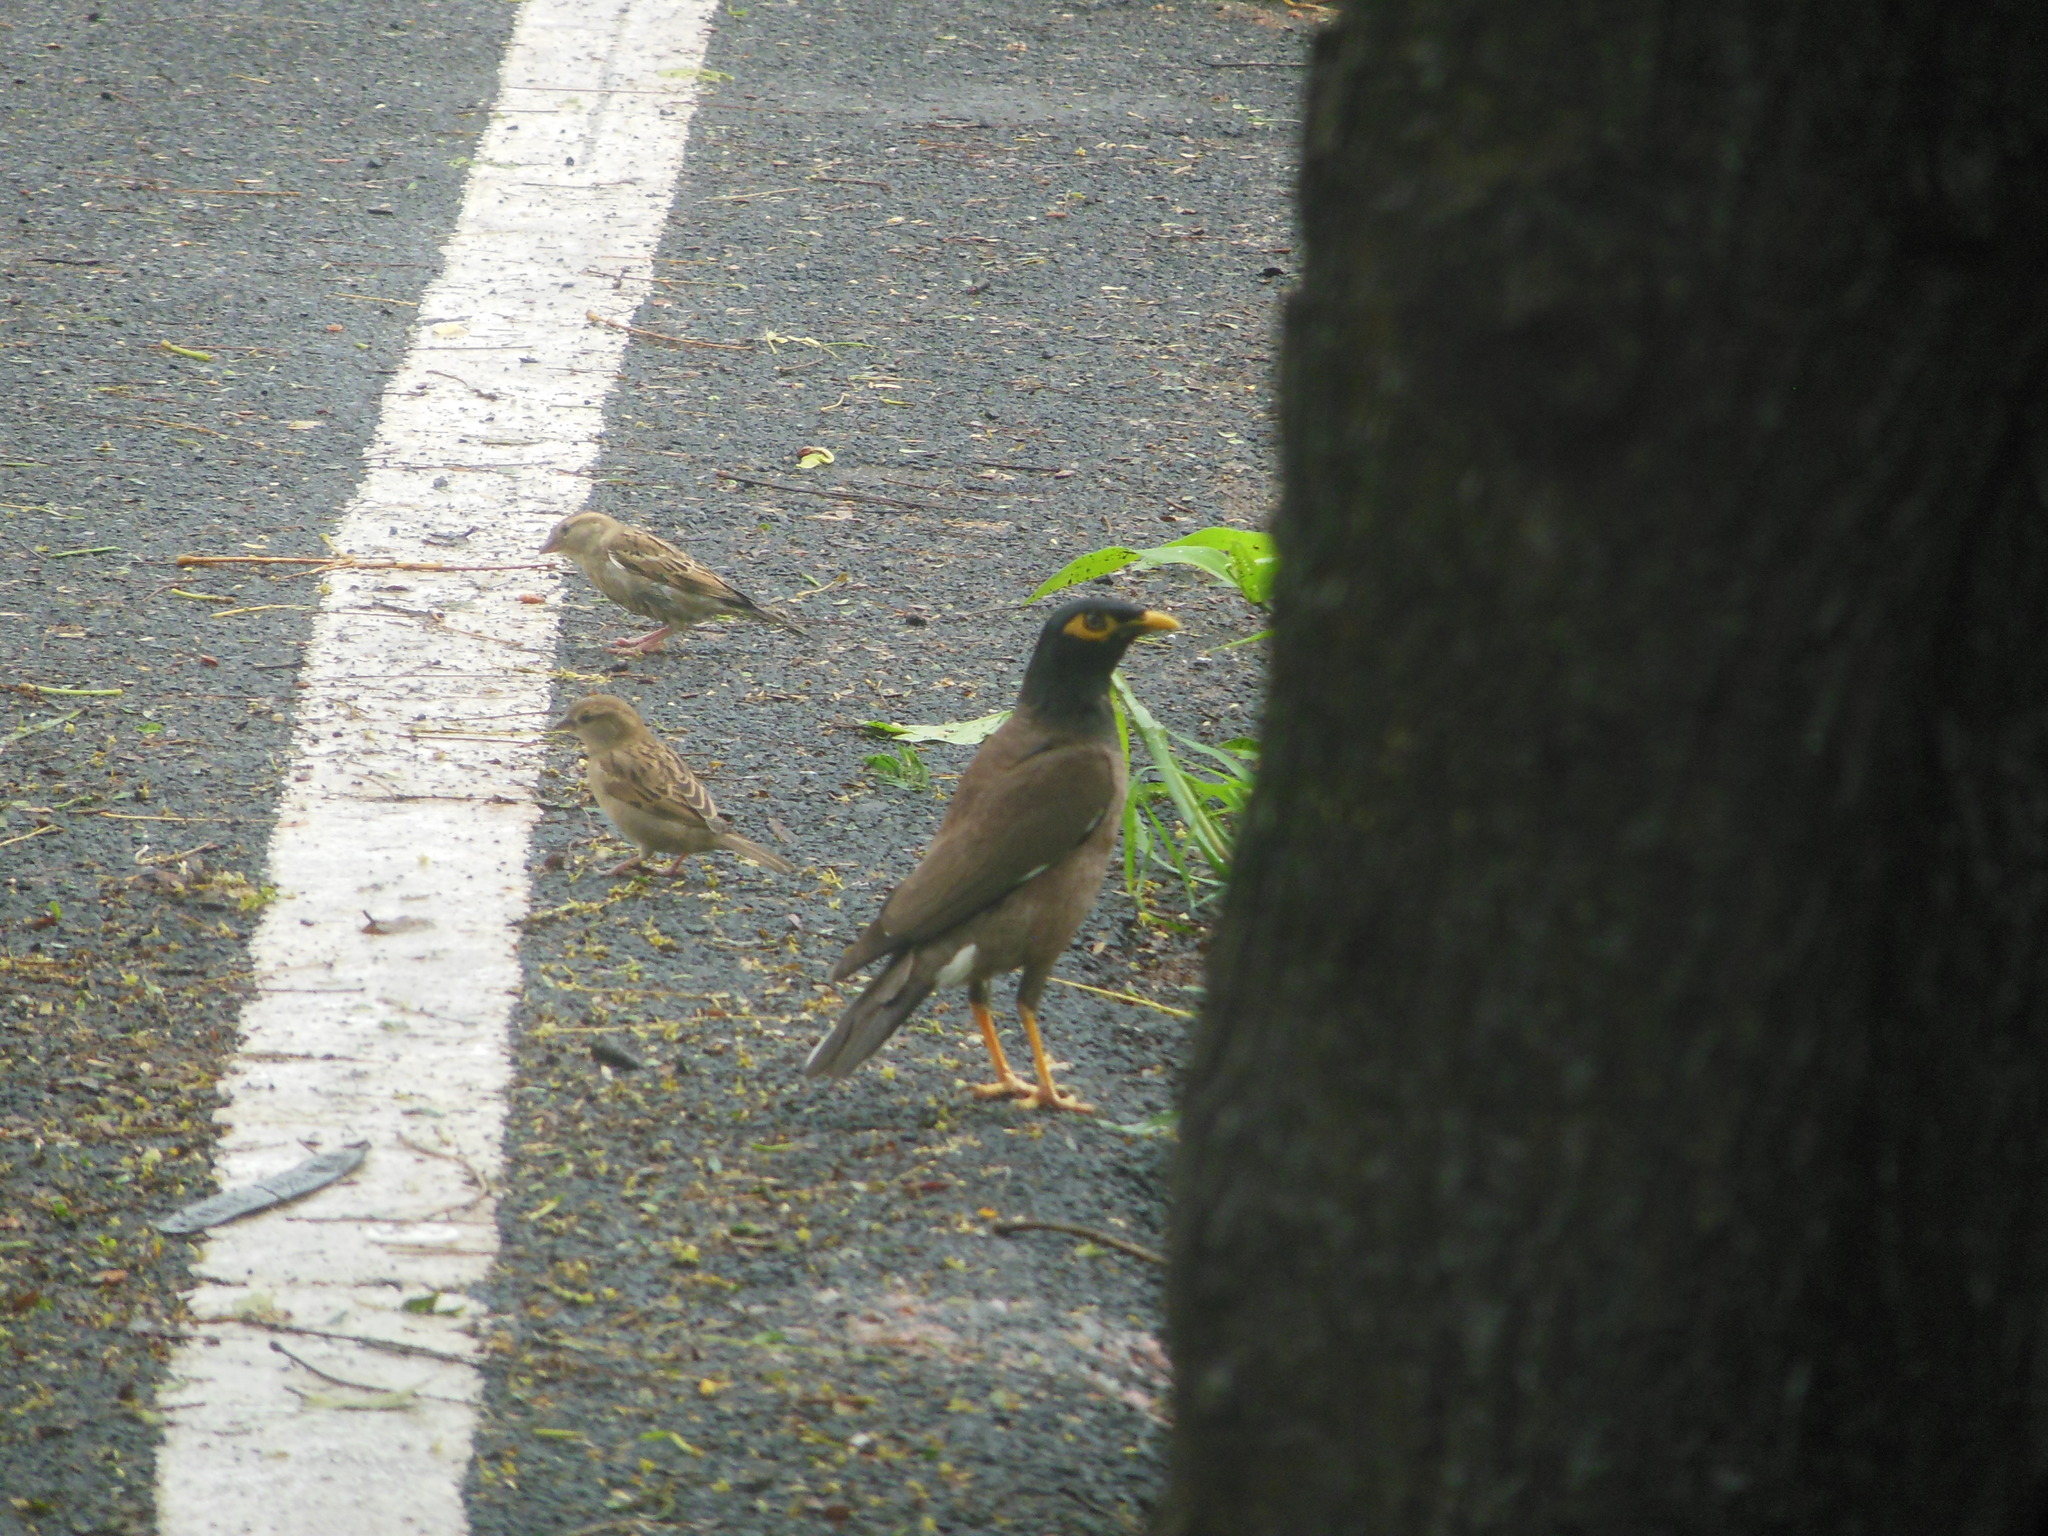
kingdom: Animalia
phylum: Chordata
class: Aves
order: Passeriformes
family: Sturnidae
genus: Acridotheres
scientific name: Acridotheres tristis
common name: Common myna
